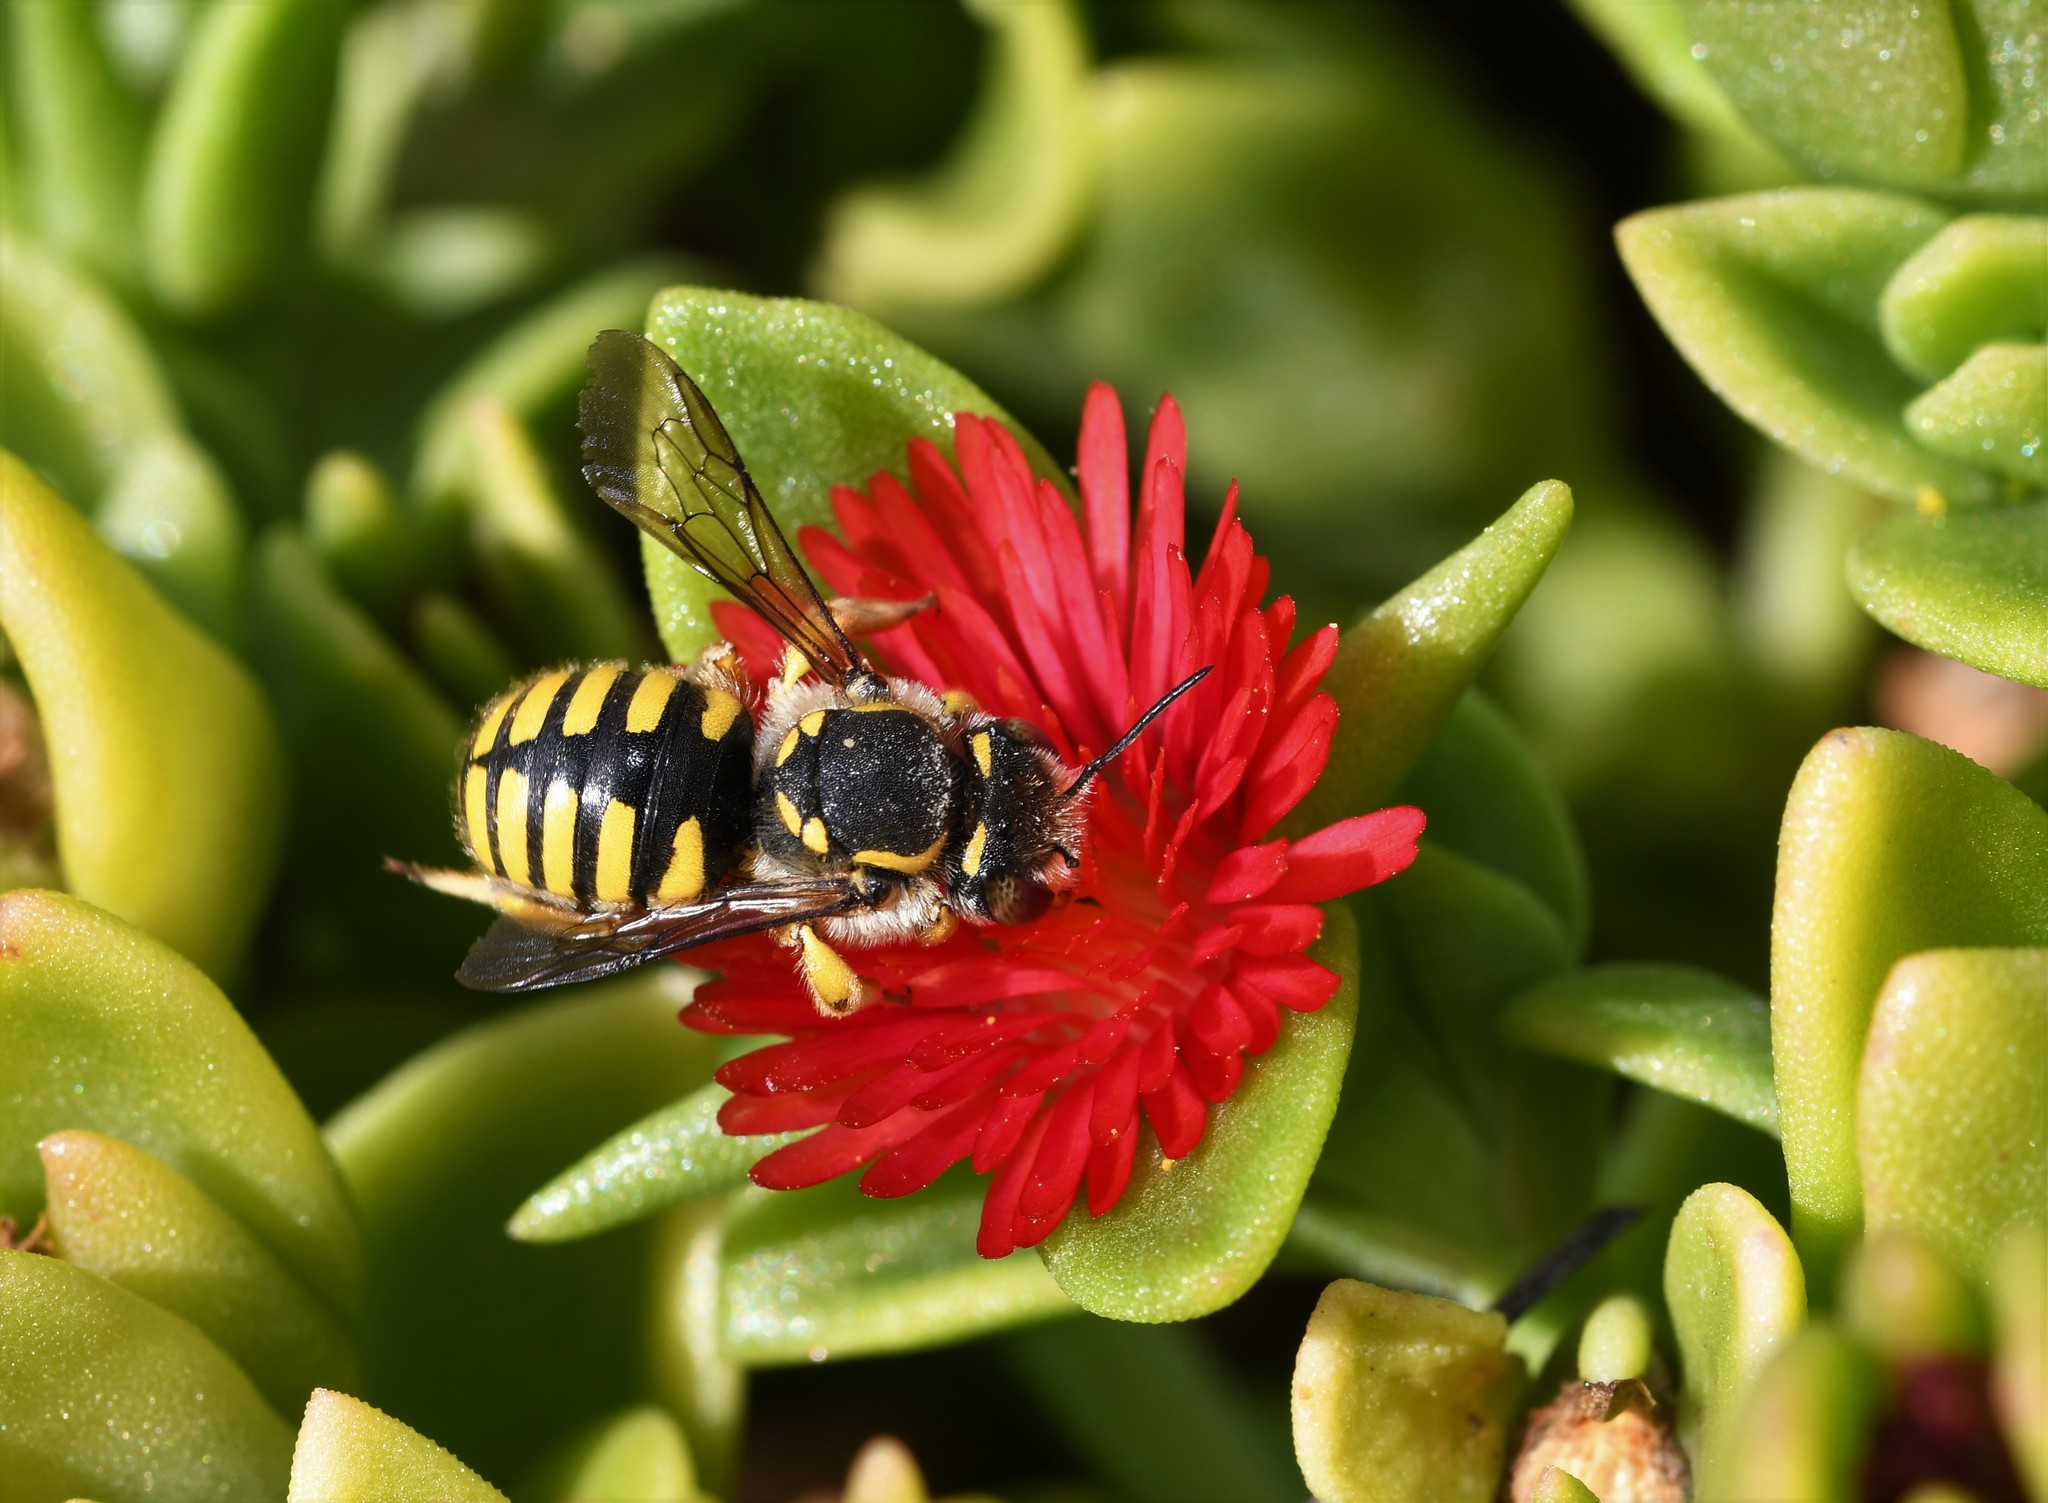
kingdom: Animalia
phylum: Arthropoda
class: Insecta
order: Hymenoptera
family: Megachilidae
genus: Anthidium
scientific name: Anthidium manicatum
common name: Wool carder bee
